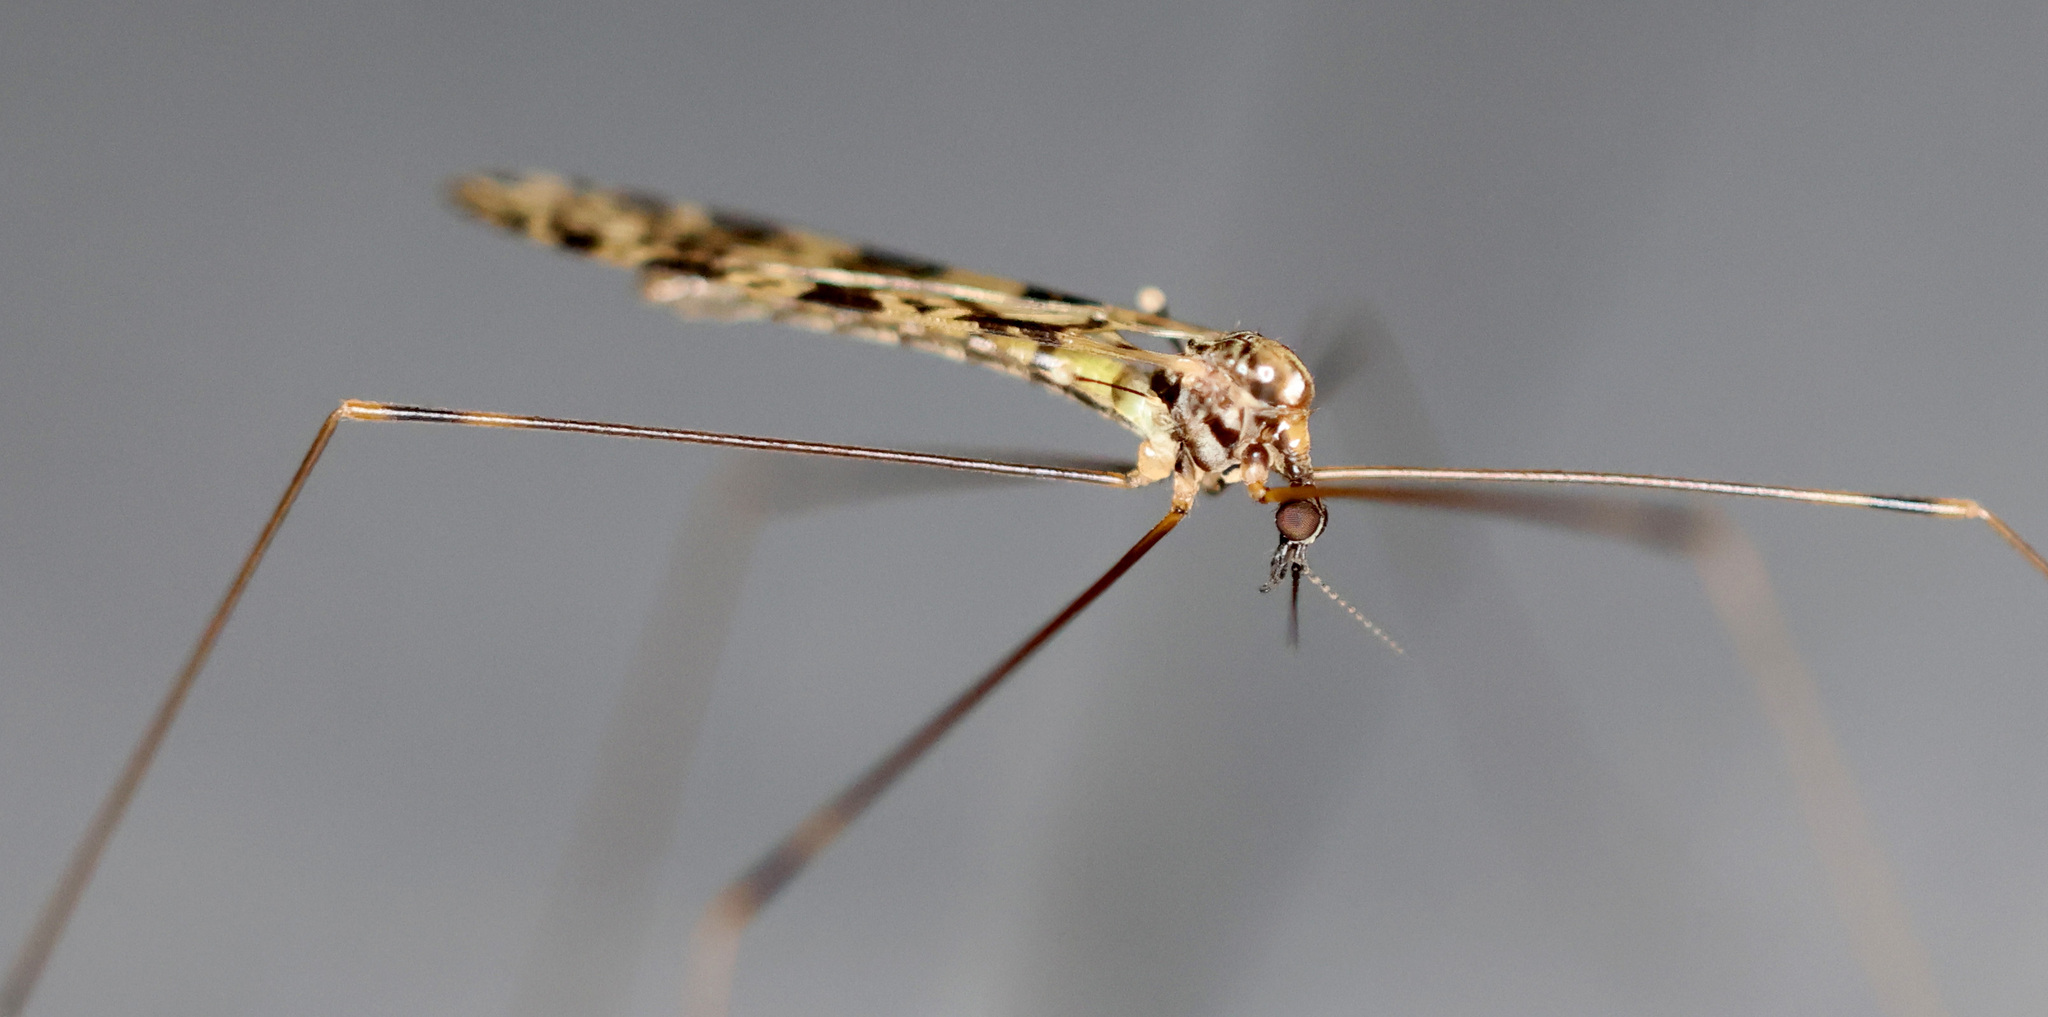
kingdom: Animalia
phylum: Arthropoda
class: Insecta
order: Diptera
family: Limoniidae
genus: Limonia
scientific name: Limonia annulata
